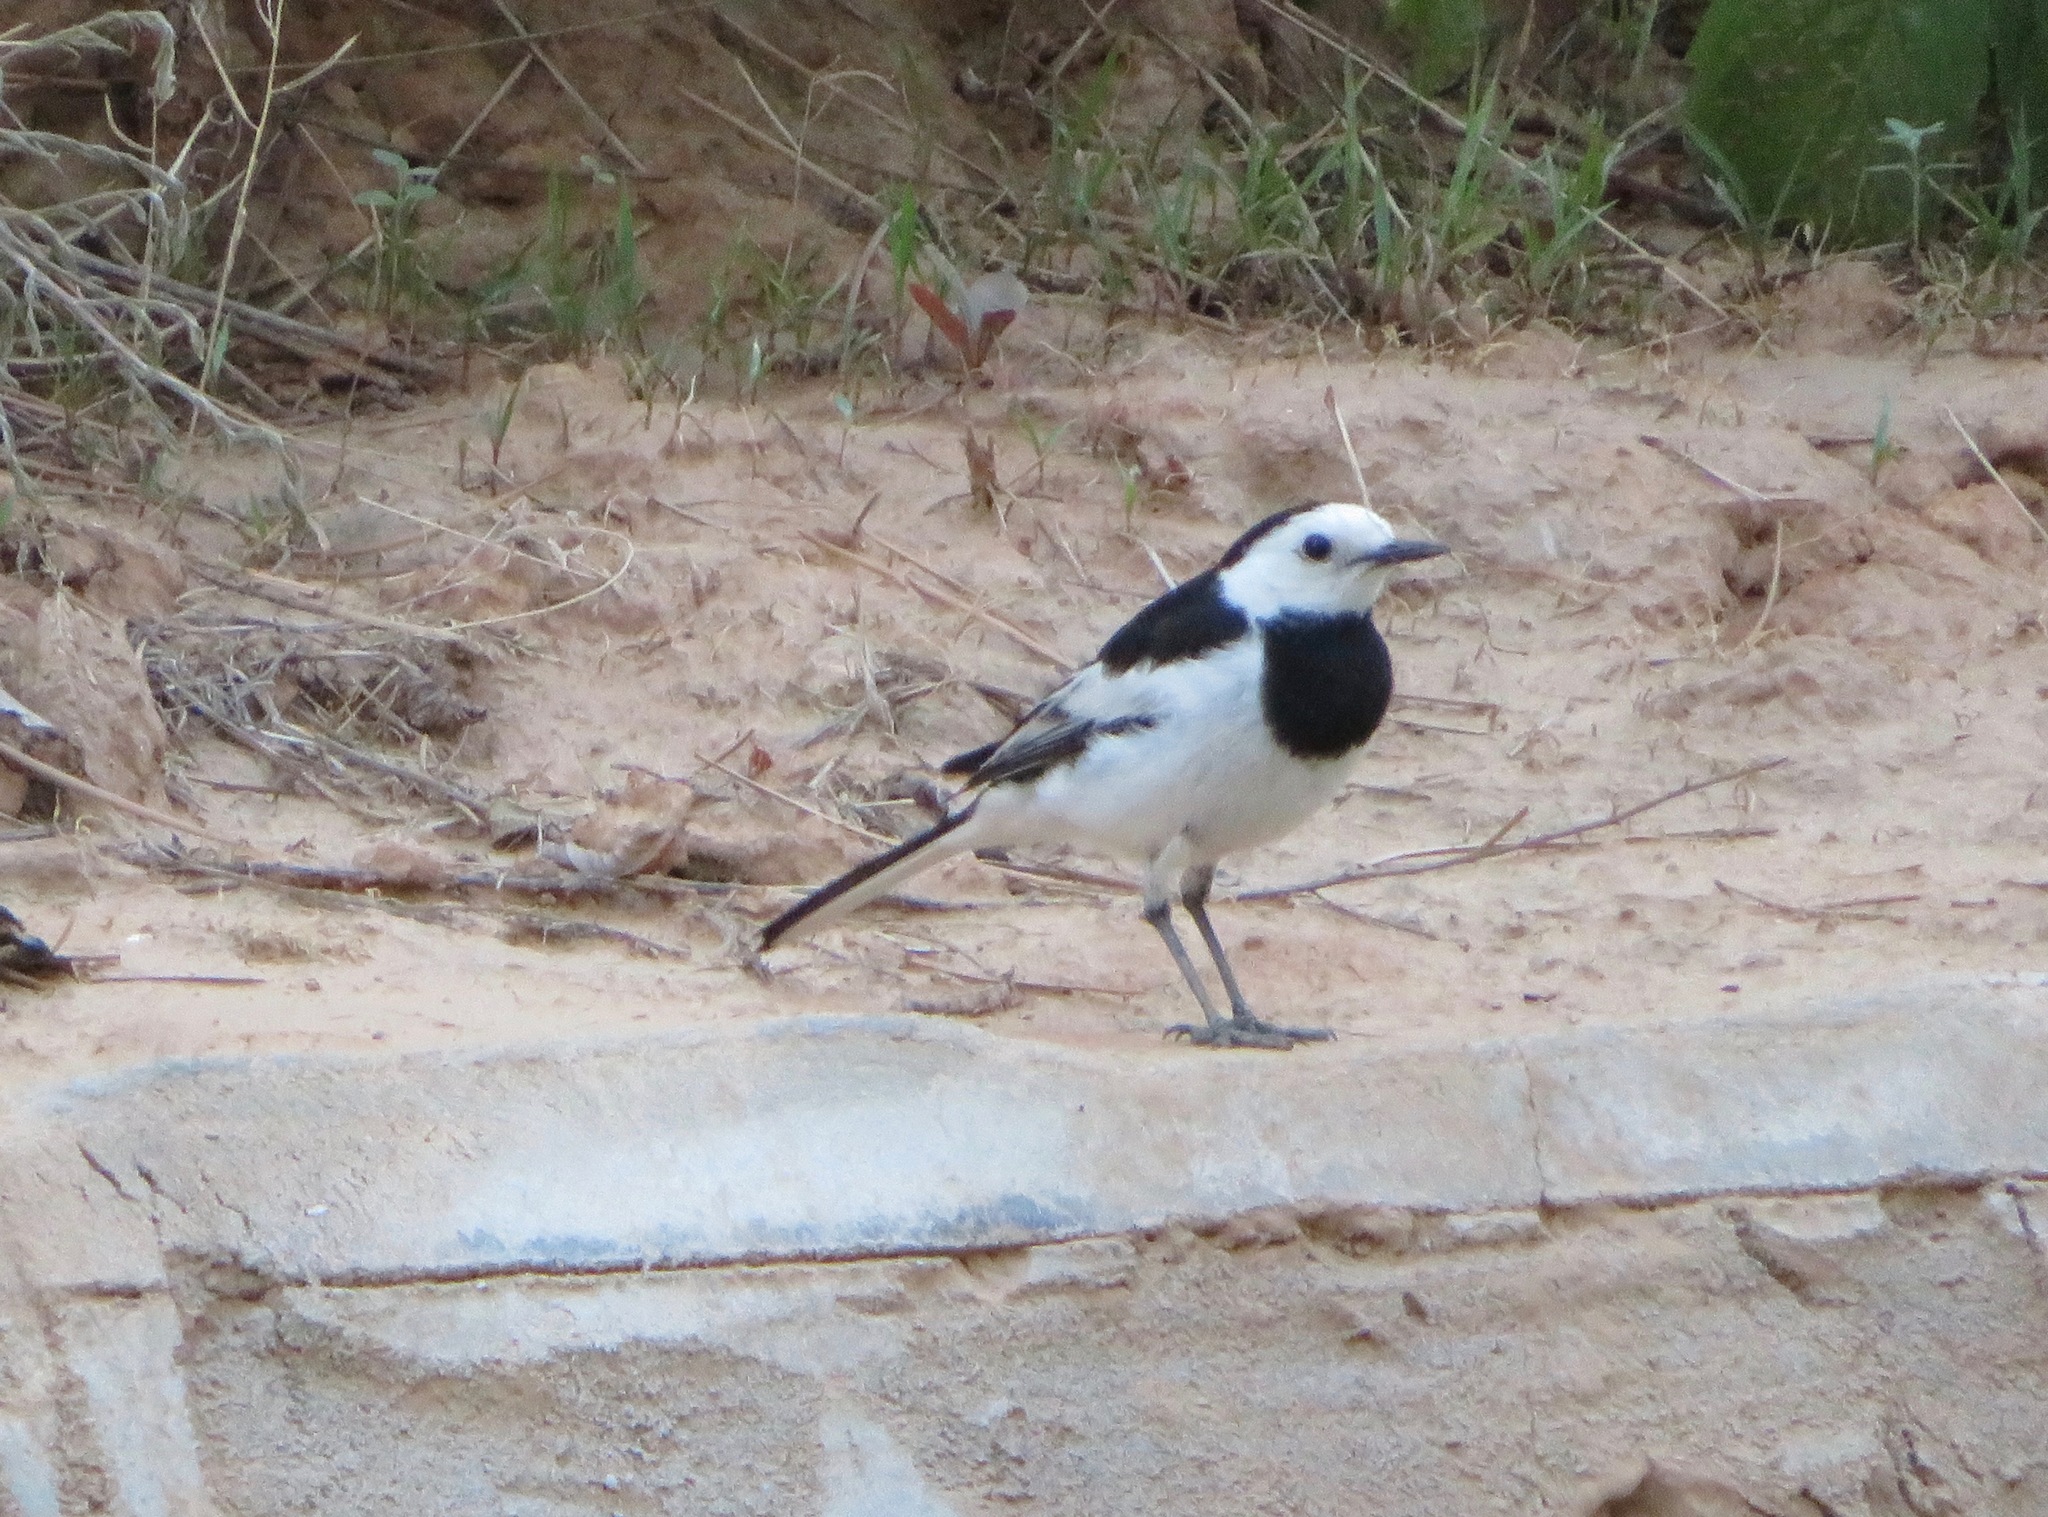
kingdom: Animalia
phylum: Chordata
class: Aves
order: Passeriformes
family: Motacillidae
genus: Motacilla
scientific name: Motacilla alba
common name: White wagtail
